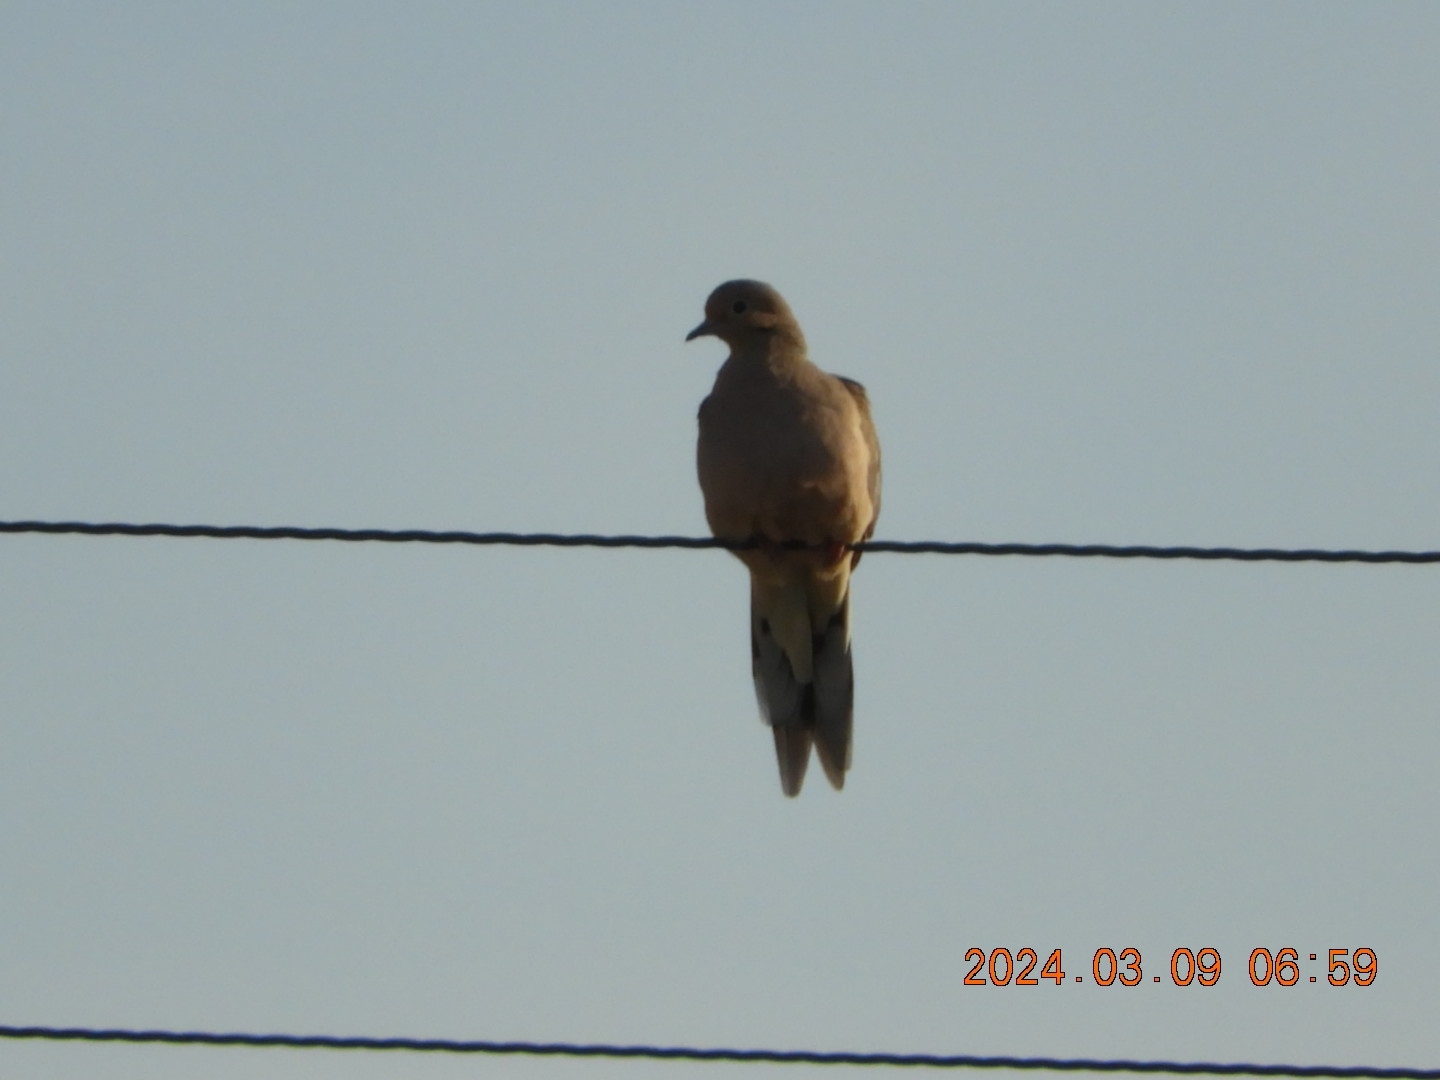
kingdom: Animalia
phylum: Chordata
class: Aves
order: Columbiformes
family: Columbidae
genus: Zenaida
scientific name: Zenaida macroura
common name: Mourning dove
